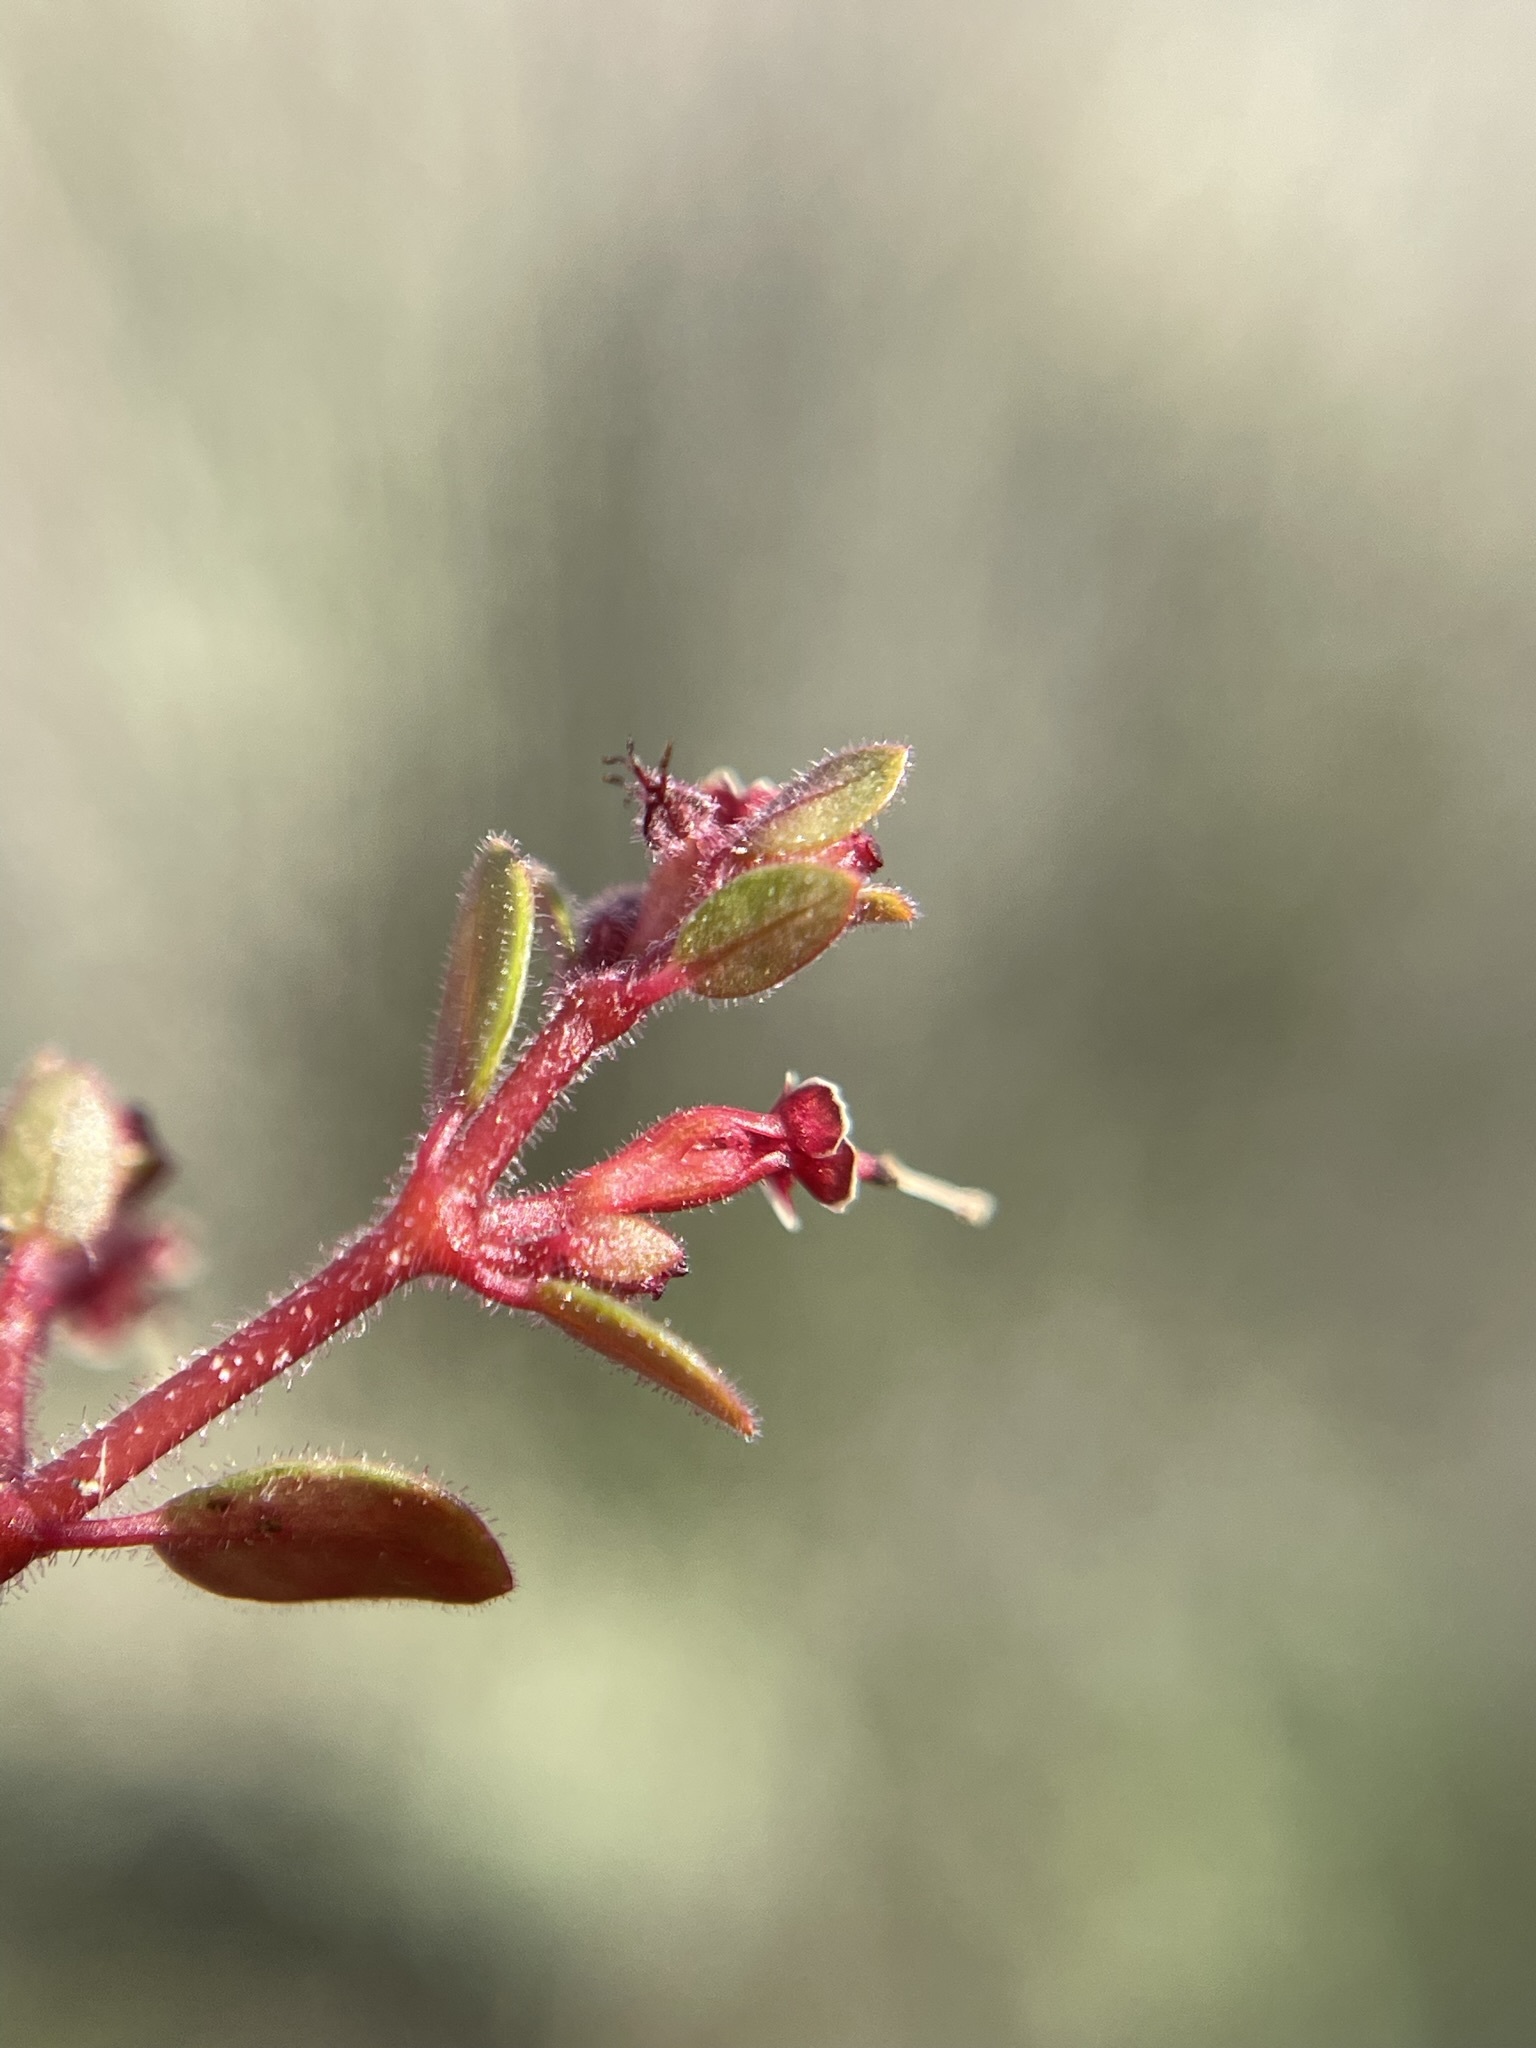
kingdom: Plantae
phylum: Tracheophyta
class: Magnoliopsida
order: Malpighiales
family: Euphorbiaceae
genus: Euphorbia
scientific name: Euphorbia arizonica
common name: Arizona spurge
